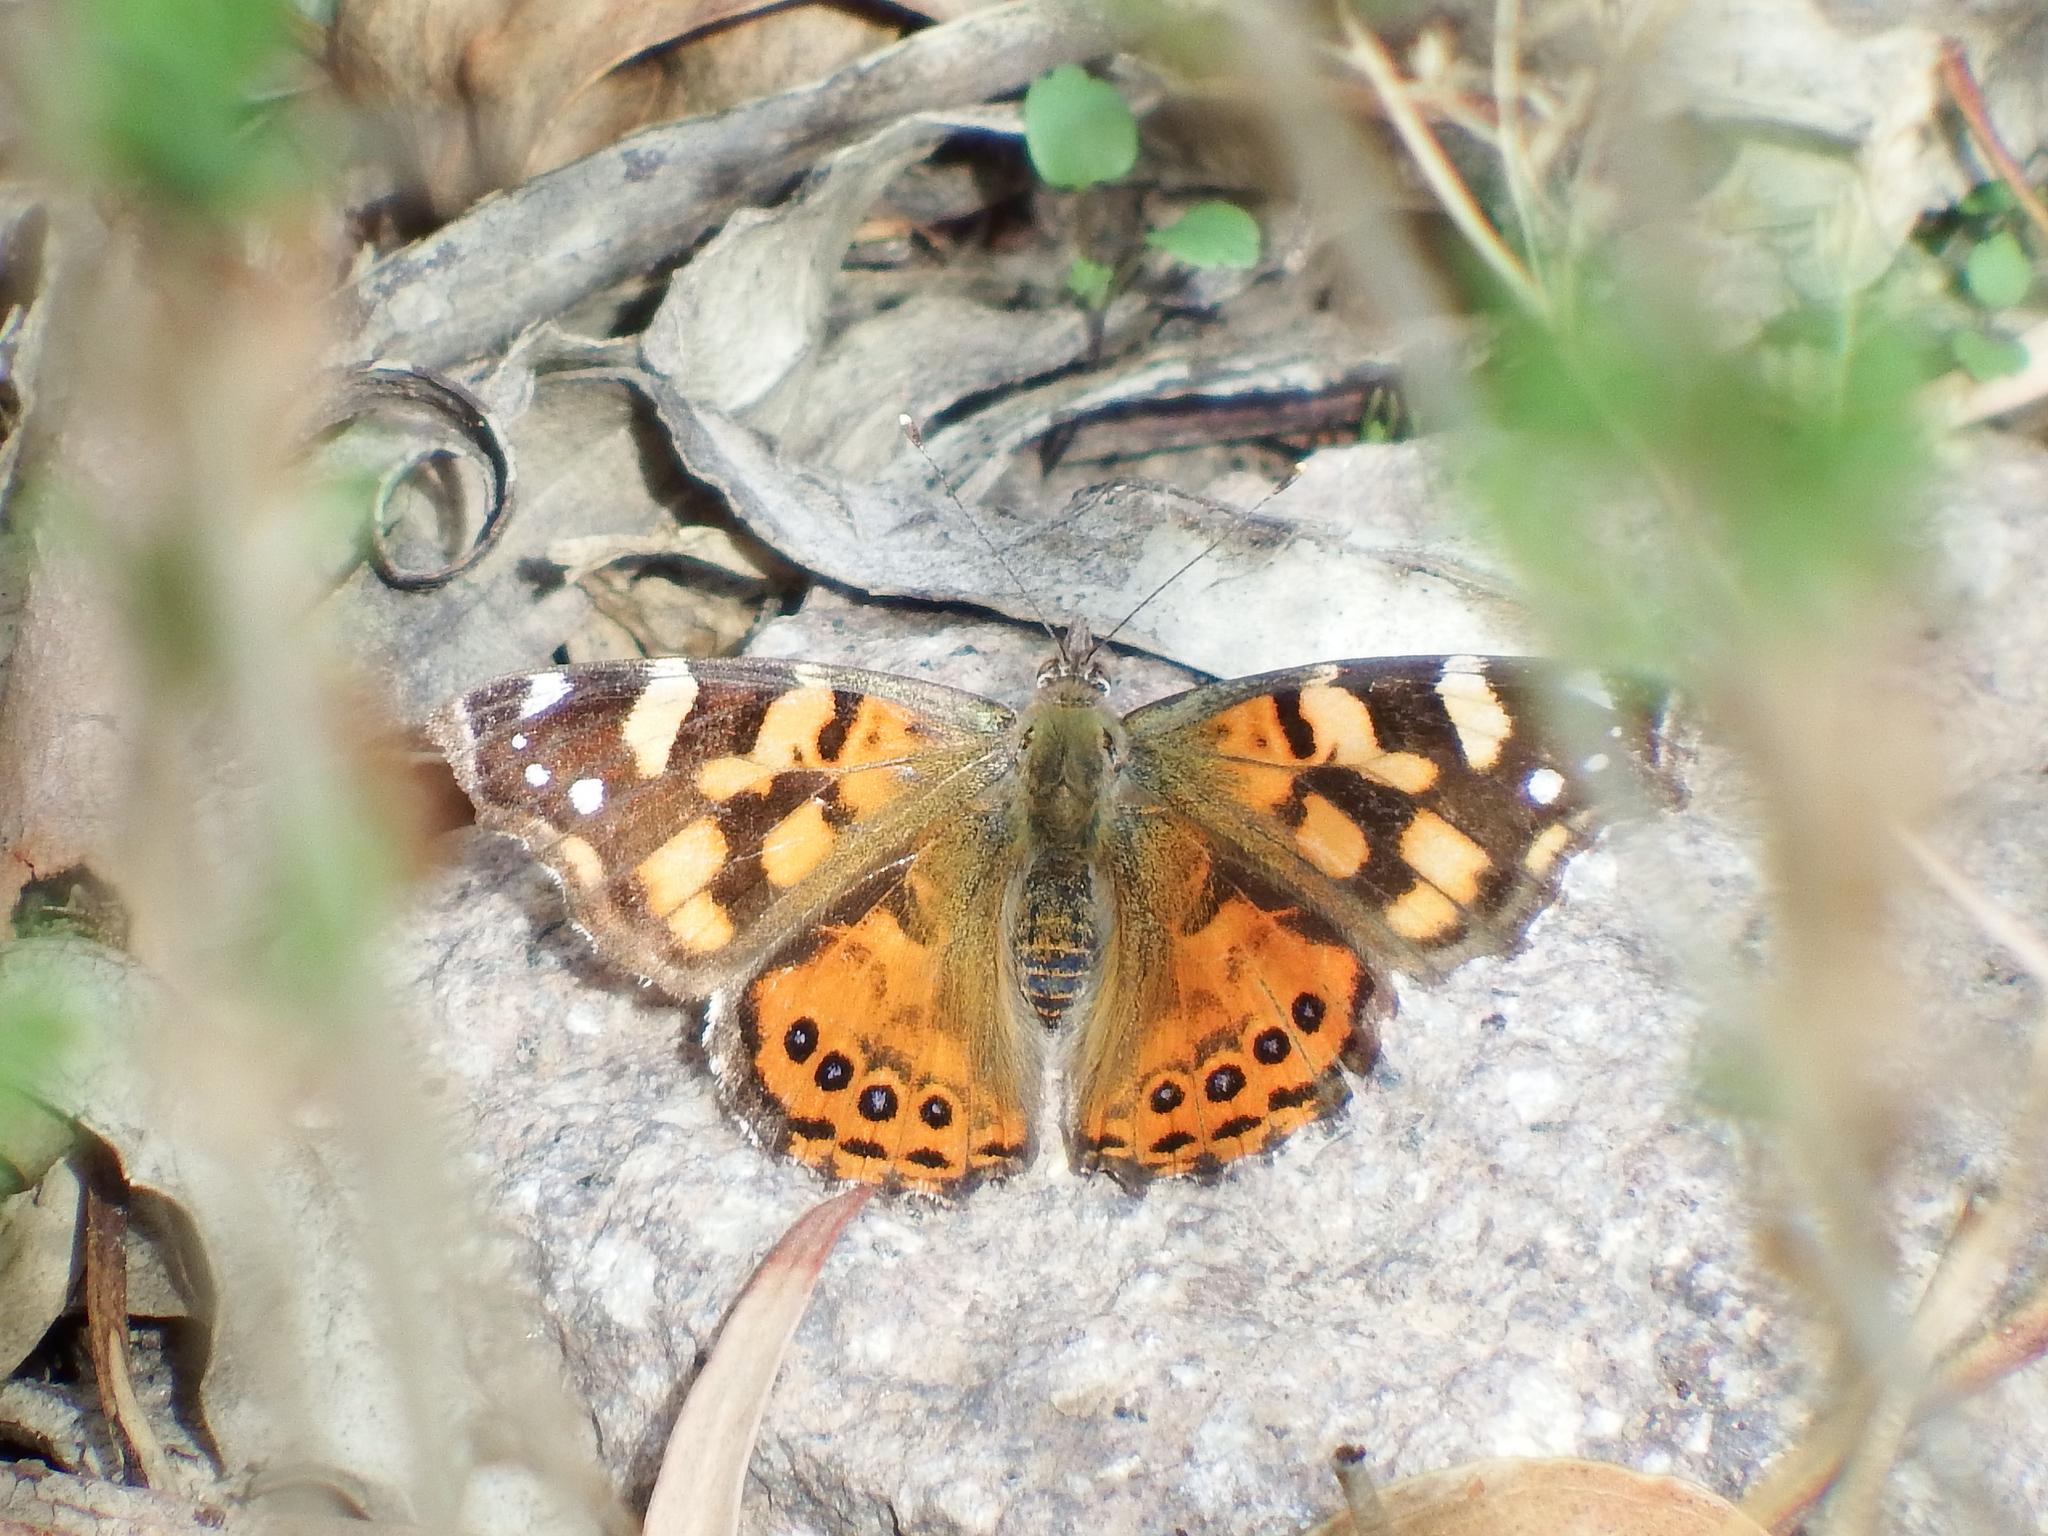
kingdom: Animalia
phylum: Arthropoda
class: Insecta
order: Lepidoptera
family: Nymphalidae
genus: Vanessa
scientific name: Vanessa carye
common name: Subtropical lady
